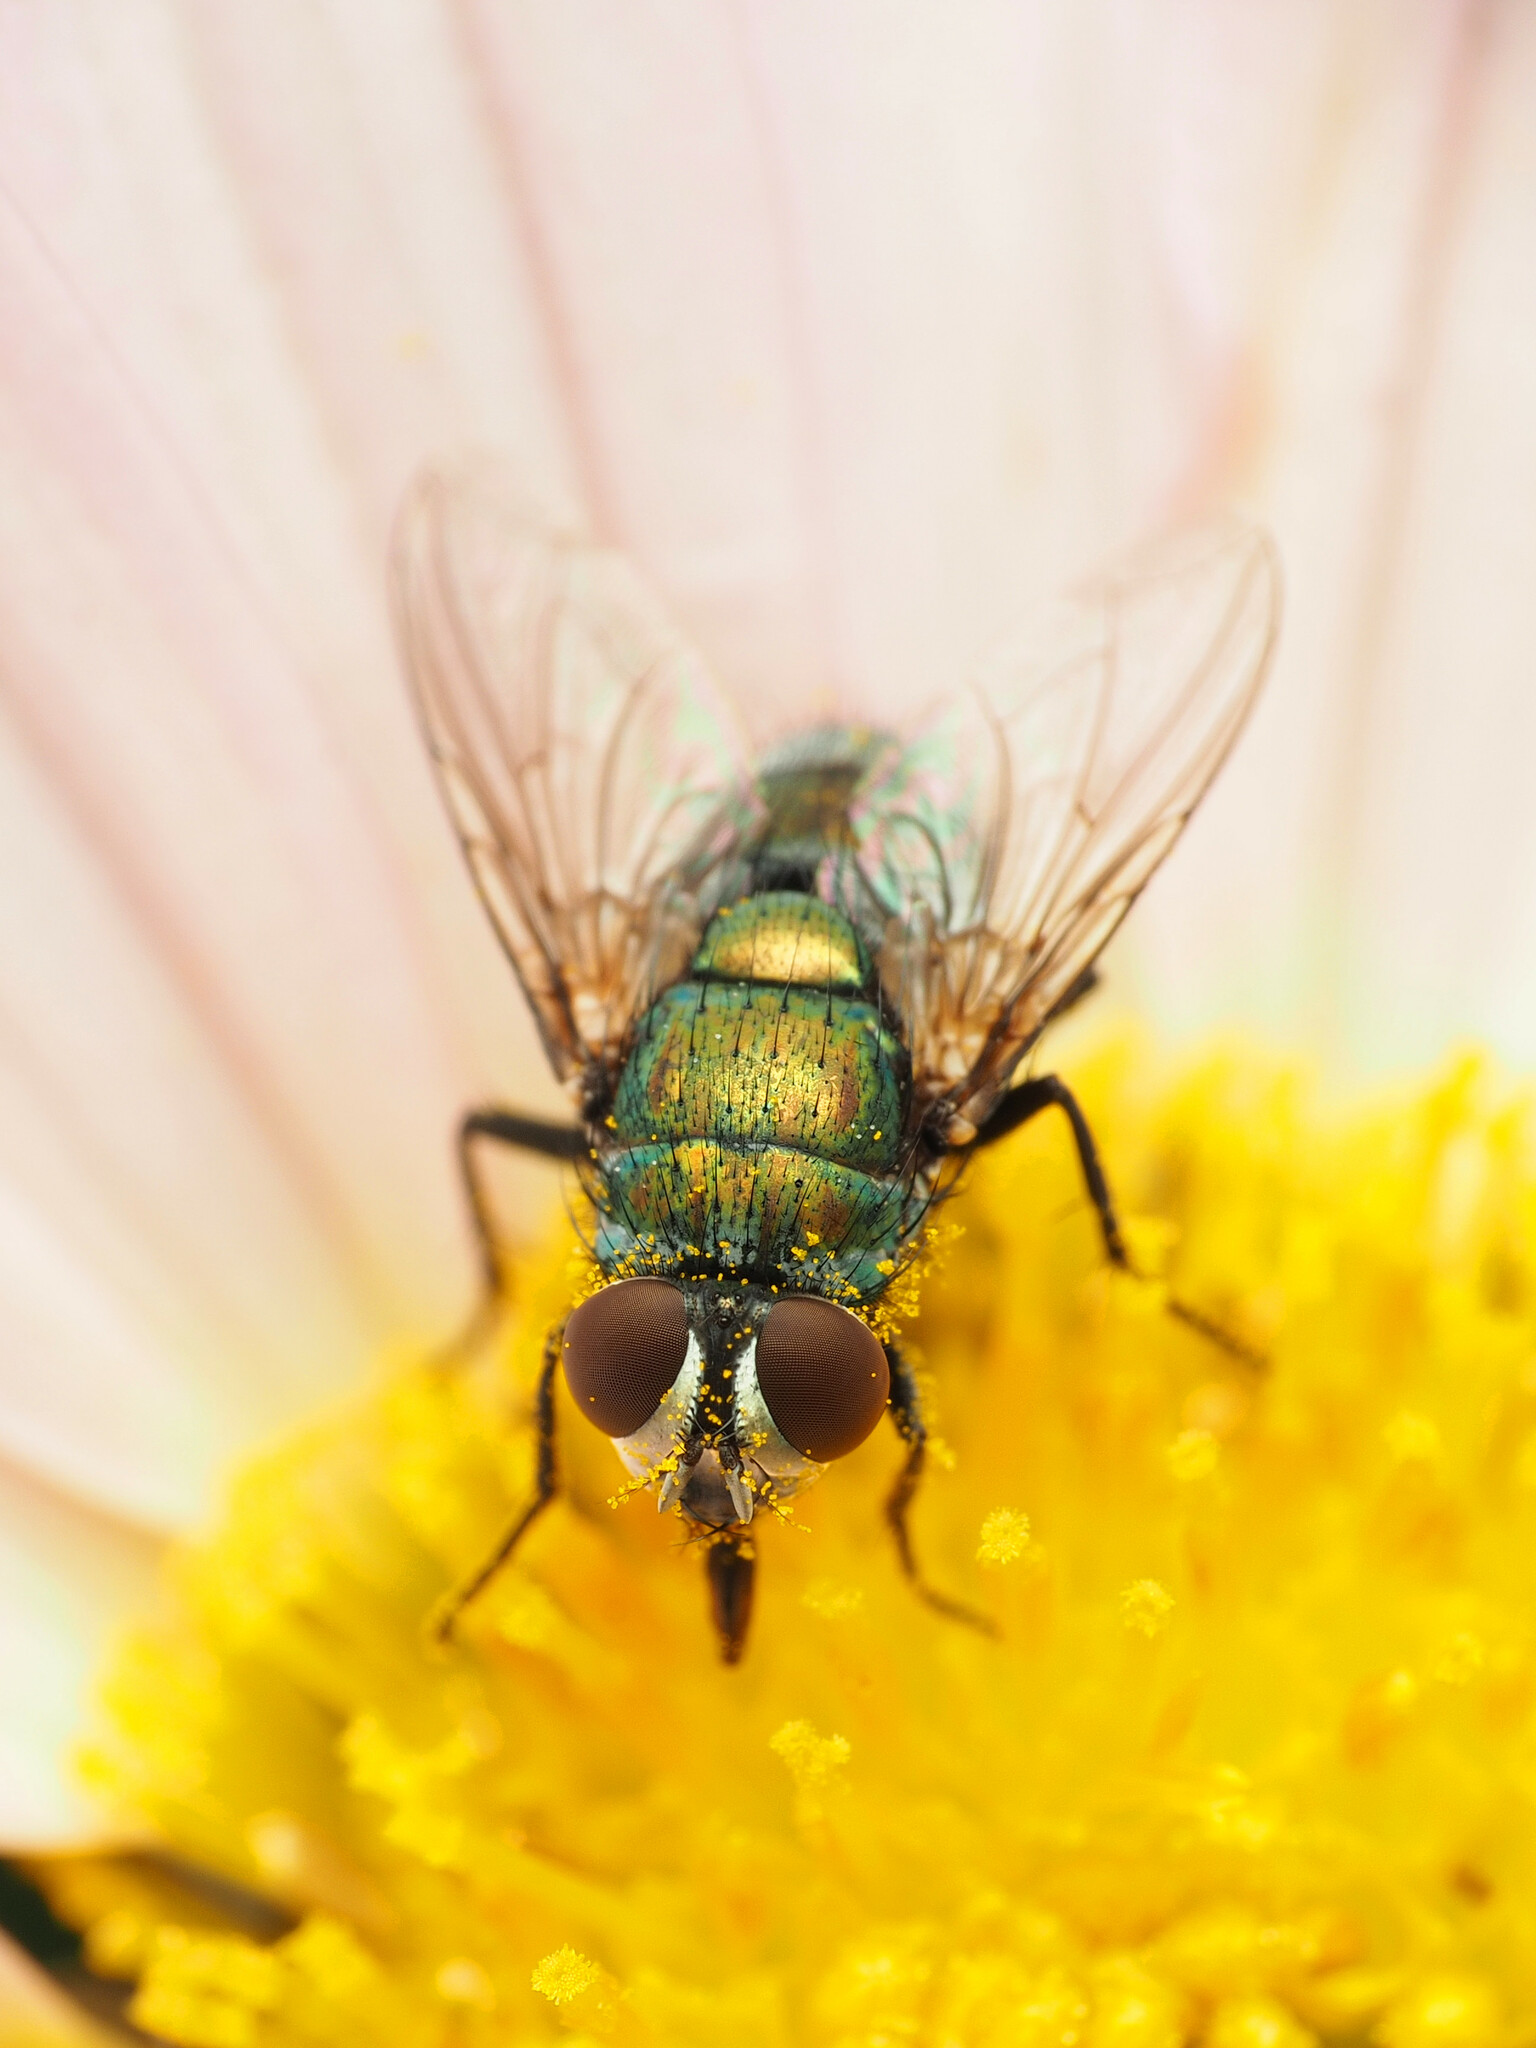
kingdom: Animalia
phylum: Arthropoda
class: Insecta
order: Diptera
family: Calliphoridae
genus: Lucilia
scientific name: Lucilia cuprina
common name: Sheep blow fly
